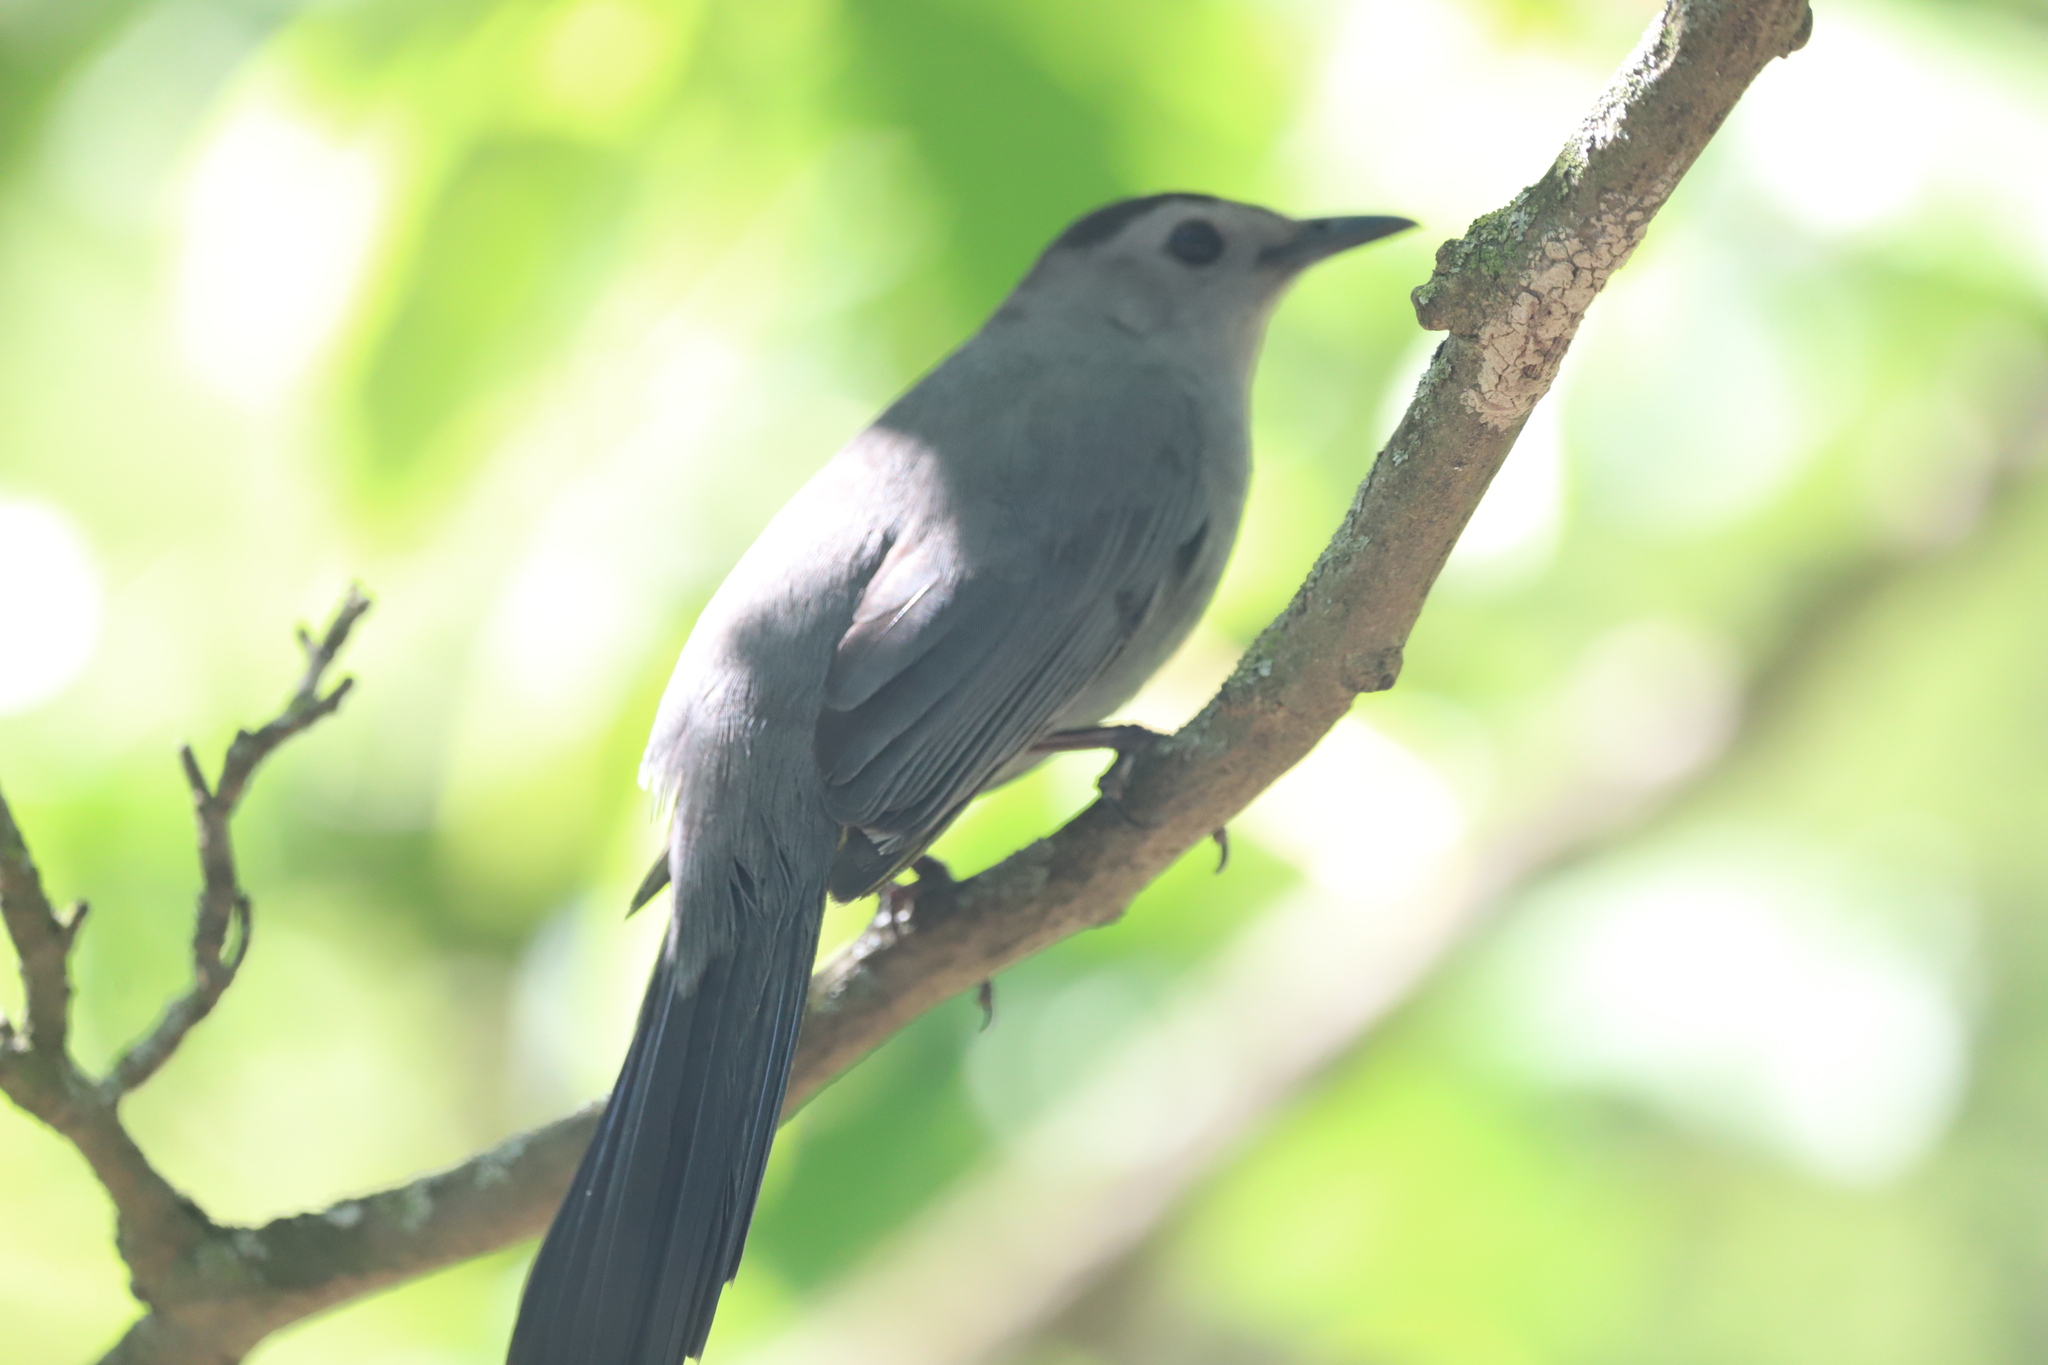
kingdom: Animalia
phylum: Chordata
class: Aves
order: Passeriformes
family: Mimidae
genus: Dumetella
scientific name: Dumetella carolinensis
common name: Gray catbird
